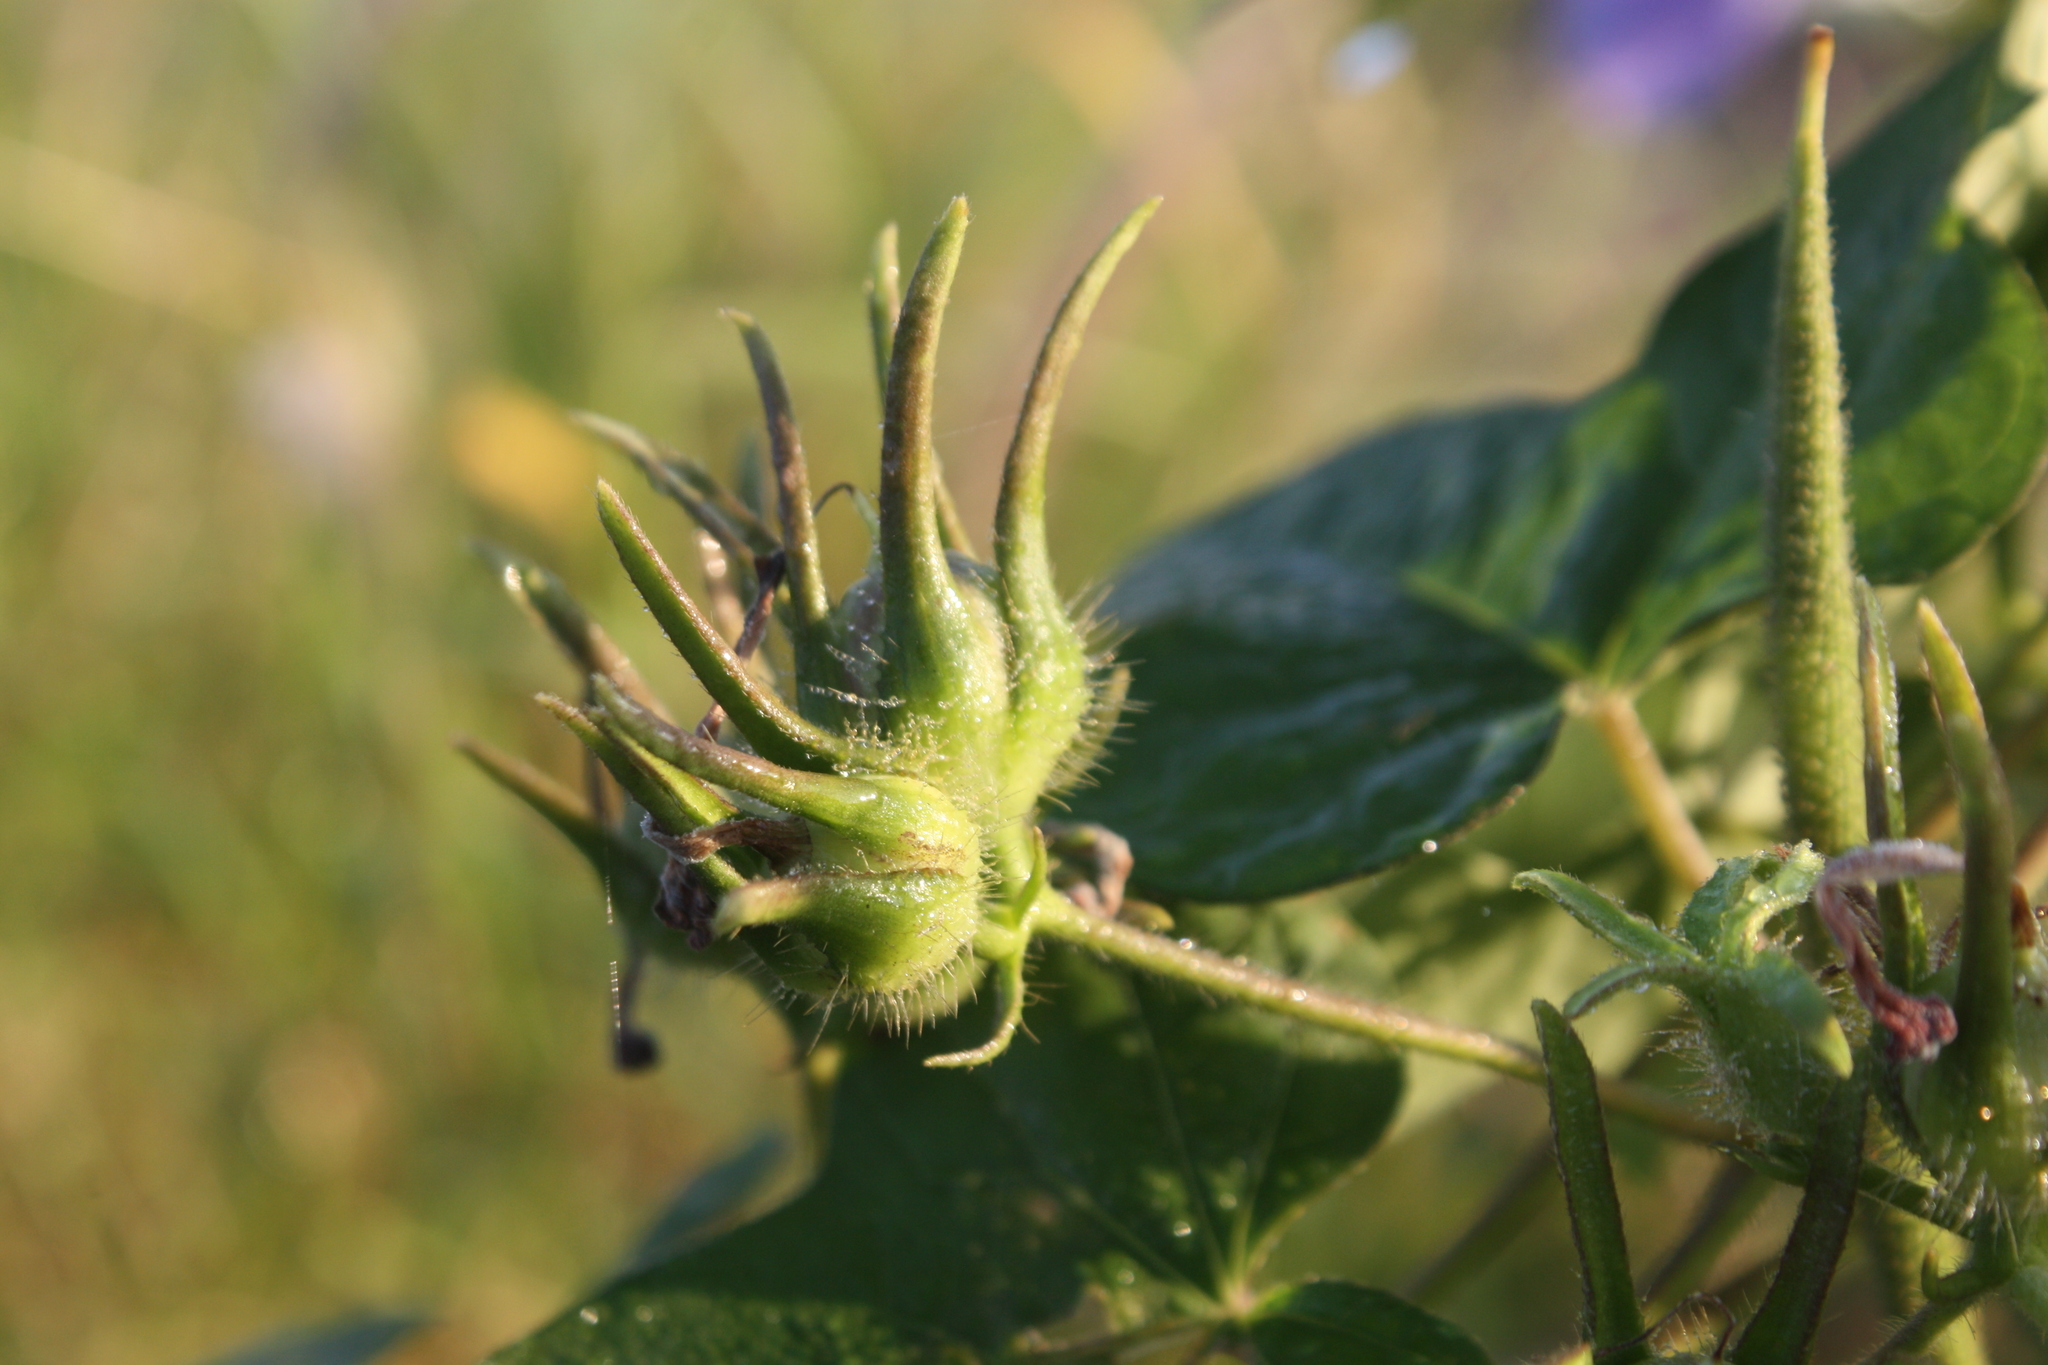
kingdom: Plantae
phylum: Tracheophyta
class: Magnoliopsida
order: Solanales
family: Convolvulaceae
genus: Ipomoea
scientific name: Ipomoea nil
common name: Japanese morning-glory
